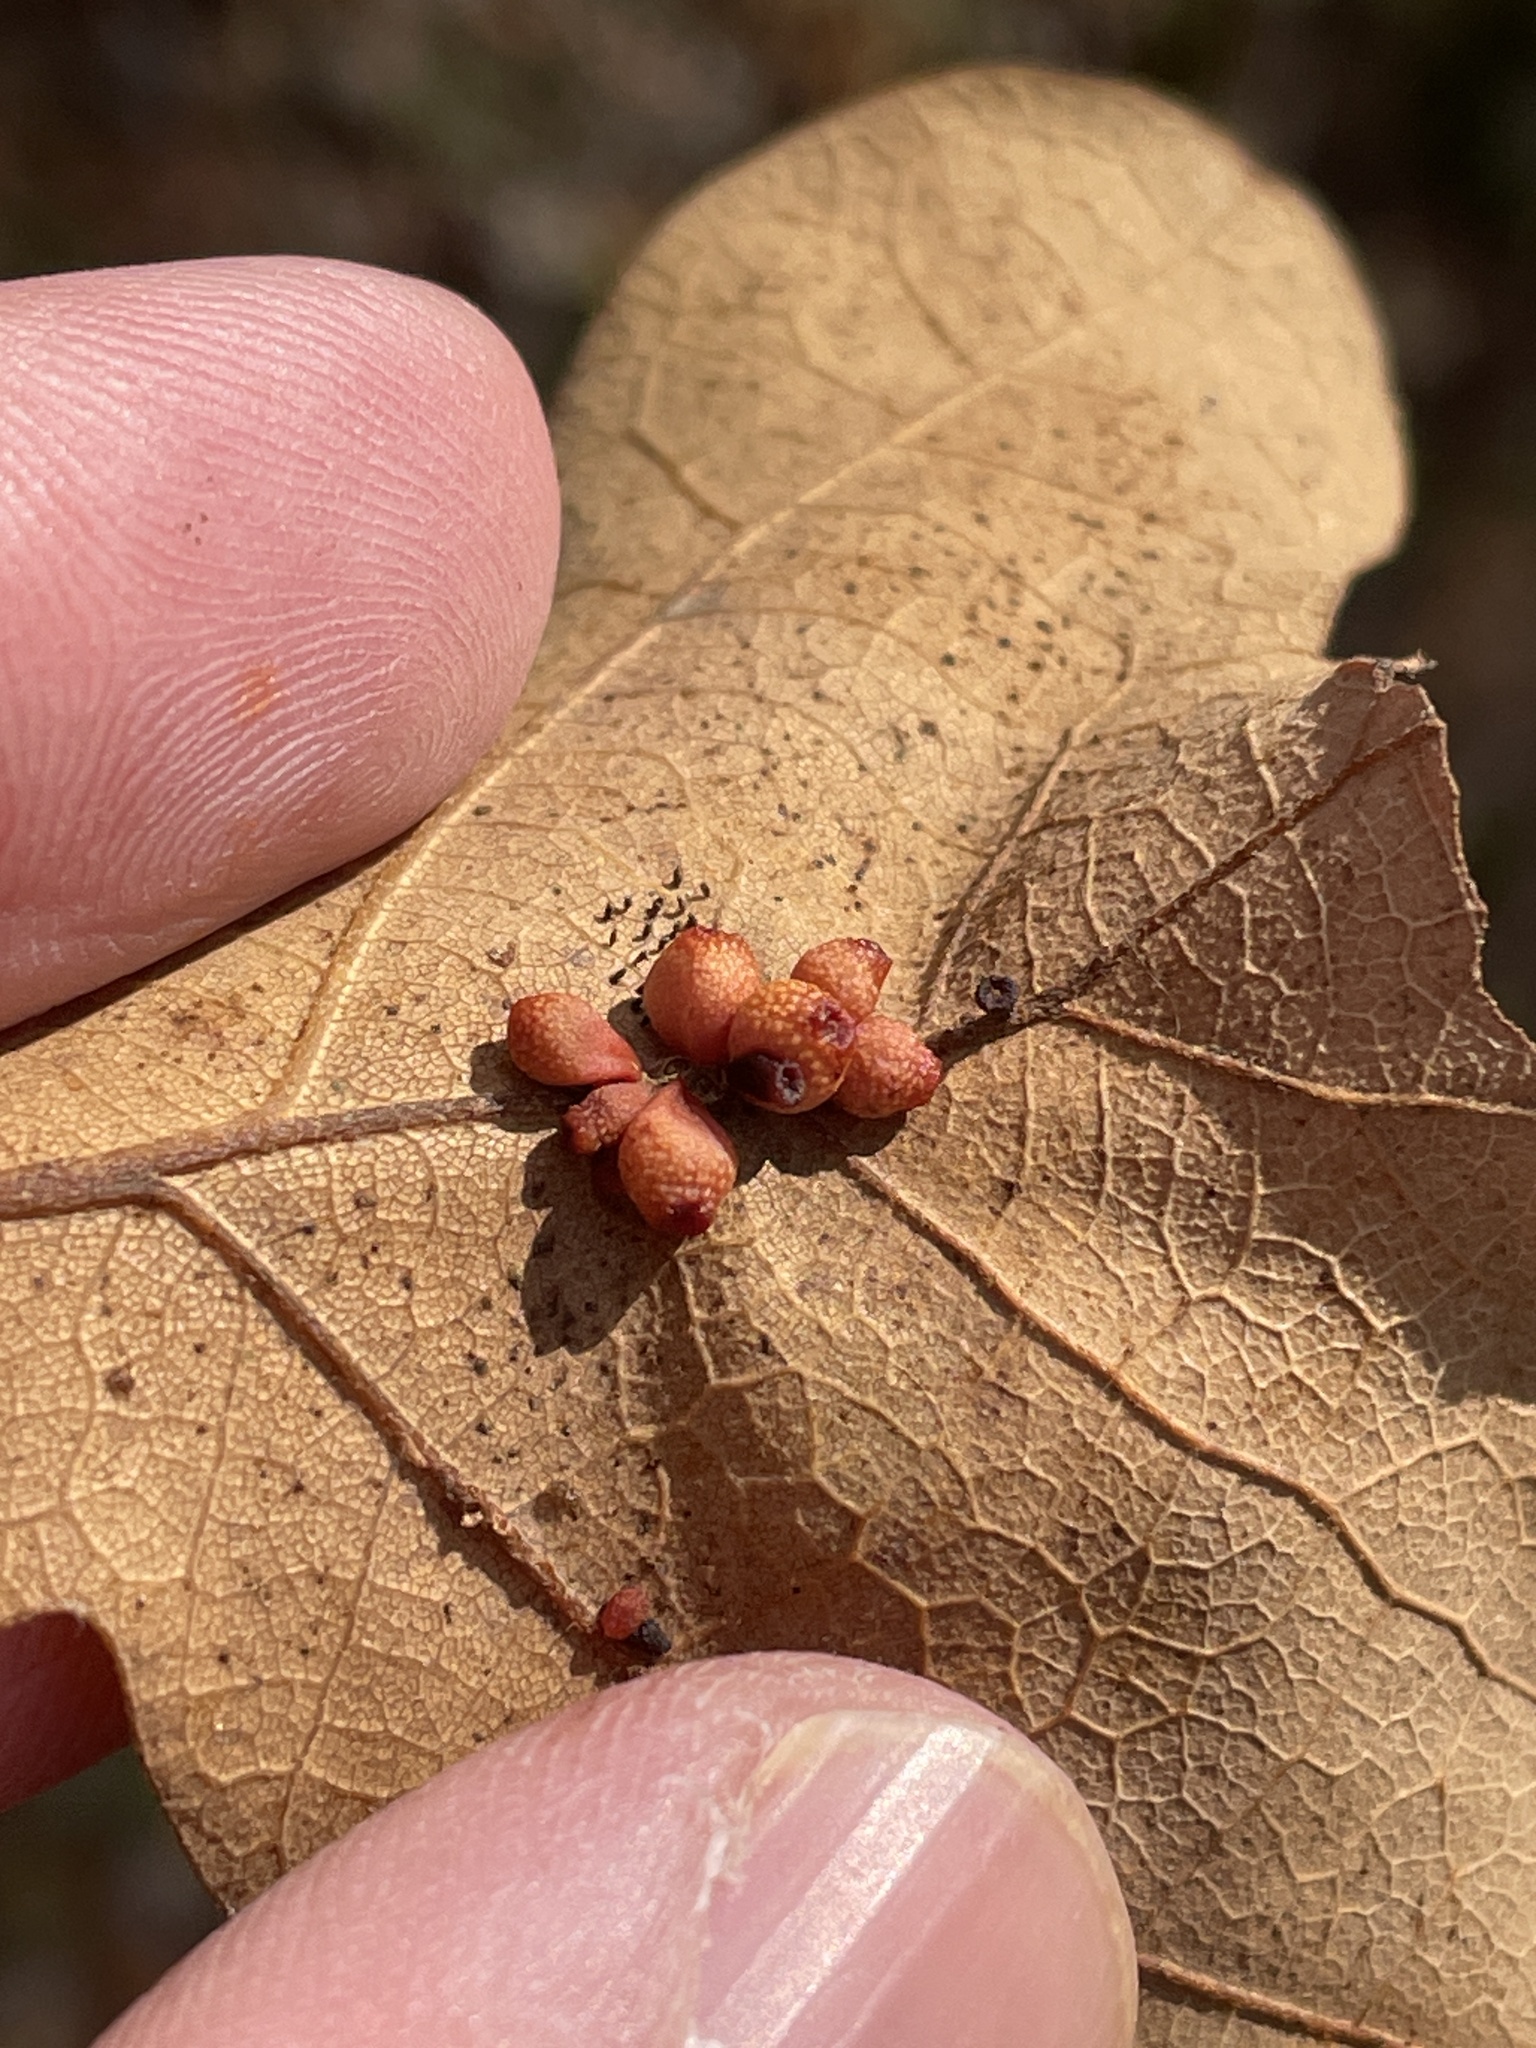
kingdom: Animalia
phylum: Arthropoda
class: Insecta
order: Hymenoptera
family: Cynipidae
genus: Andricus
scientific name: Andricus lustrans
